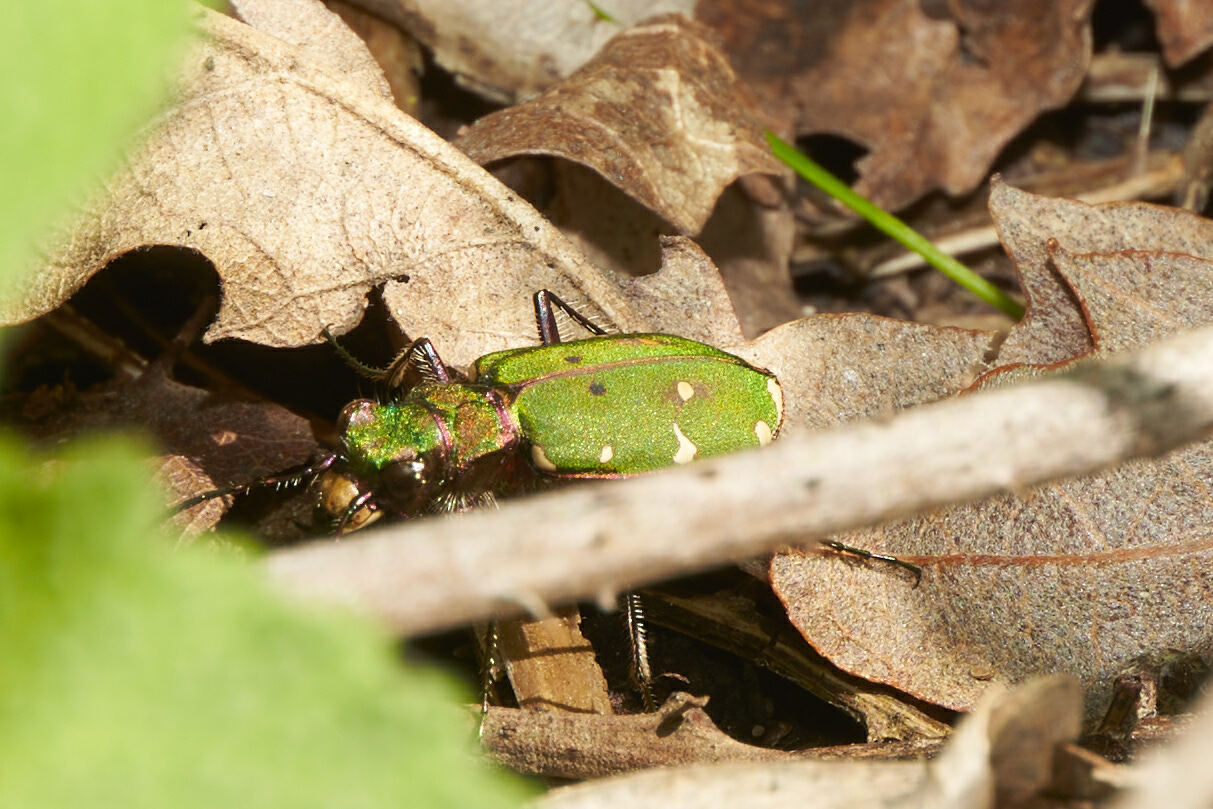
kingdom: Animalia
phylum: Arthropoda
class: Insecta
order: Coleoptera
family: Carabidae
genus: Cicindela
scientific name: Cicindela campestris
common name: Common tiger beetle
